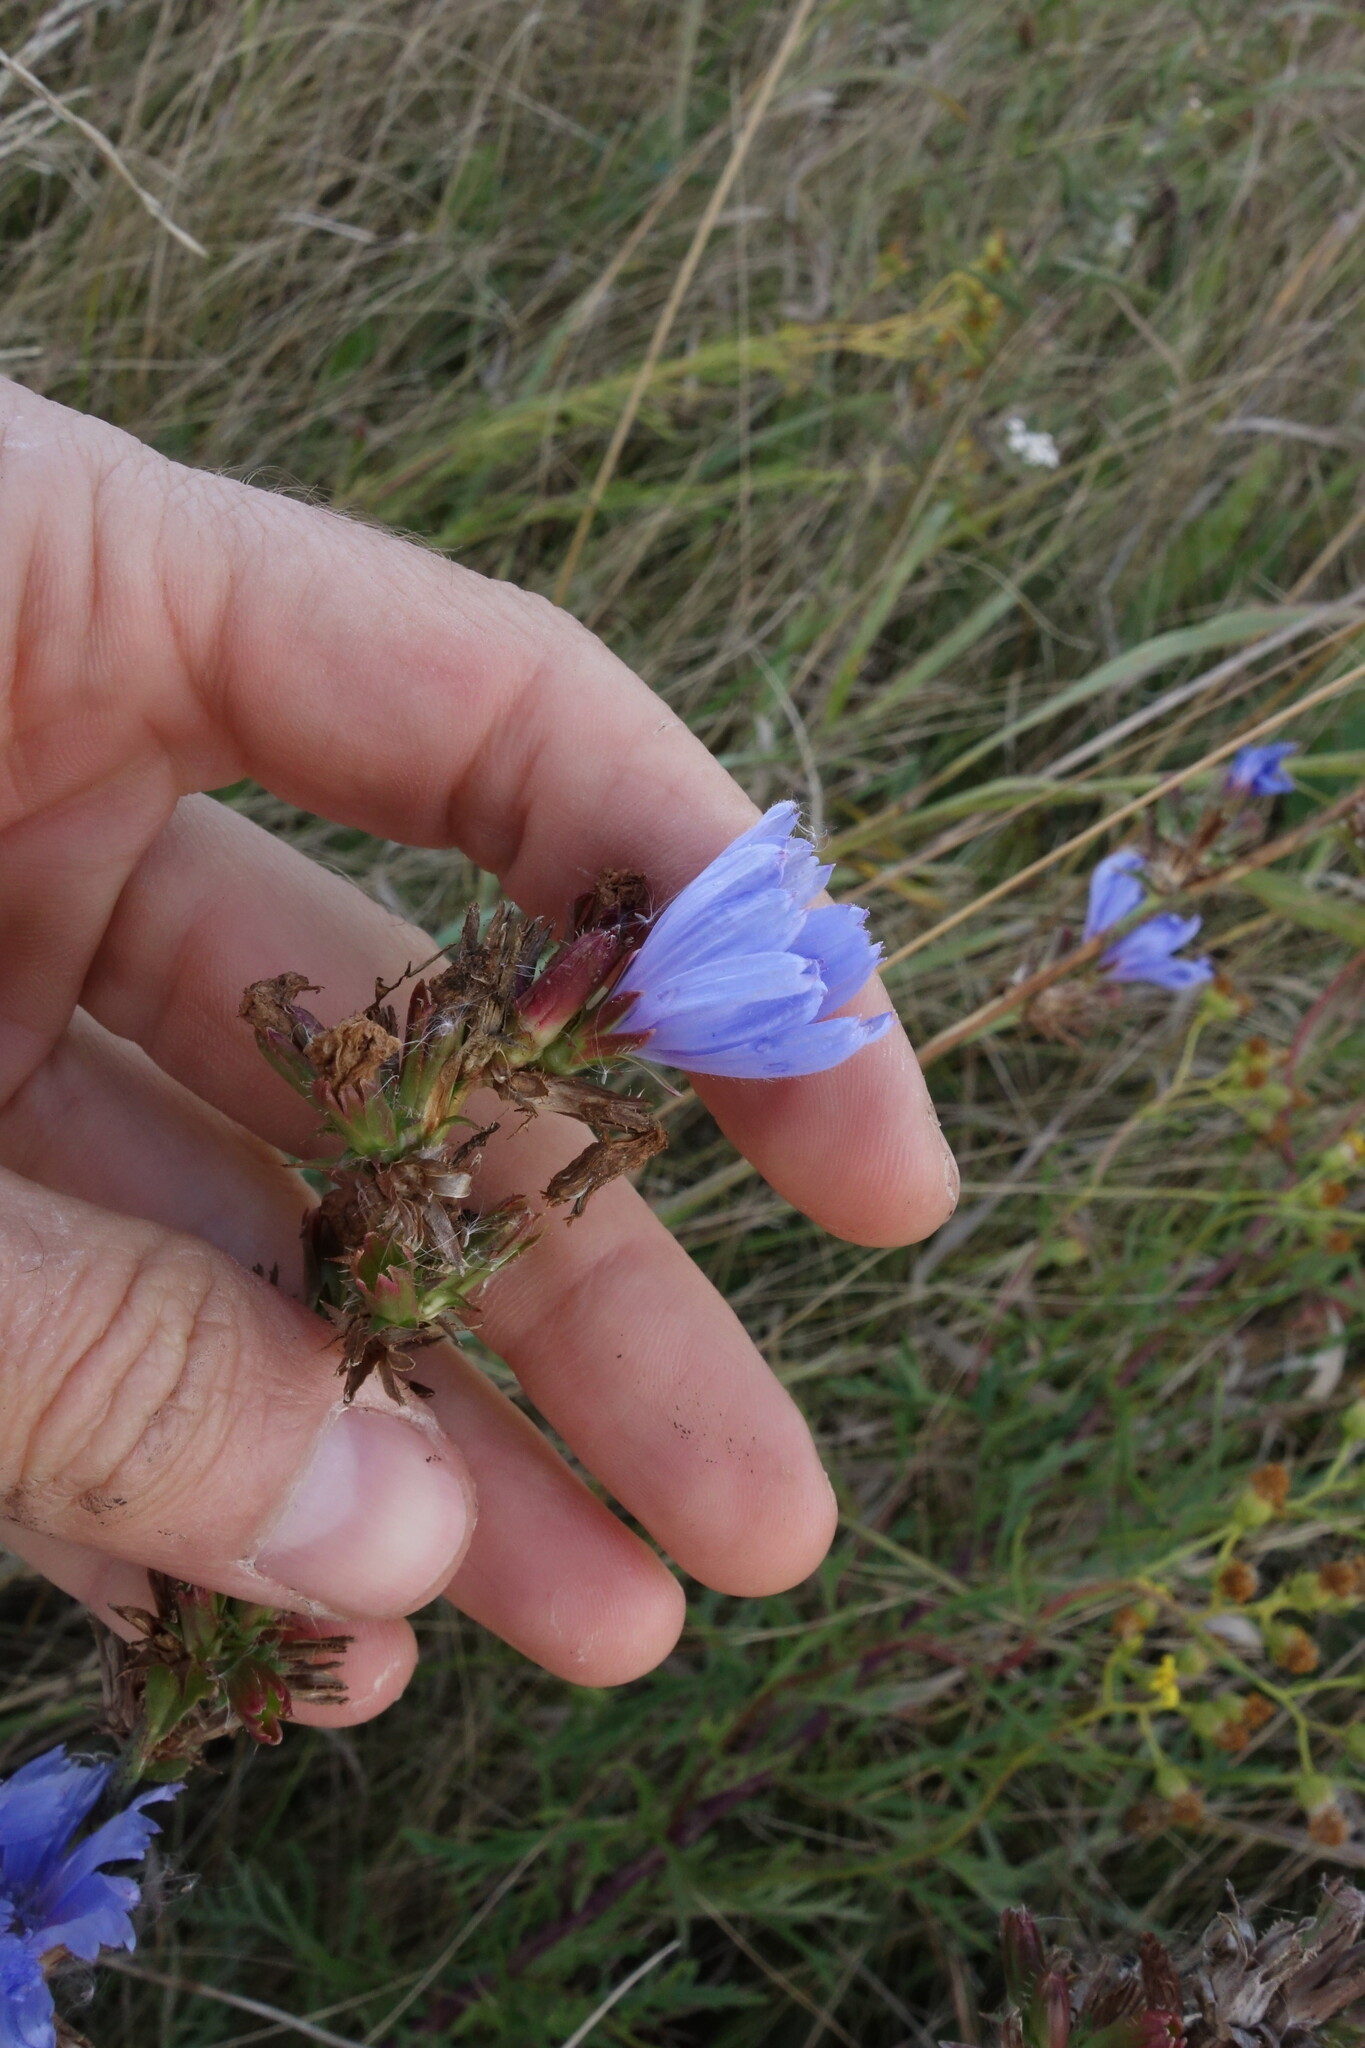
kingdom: Plantae
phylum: Tracheophyta
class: Magnoliopsida
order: Asterales
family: Asteraceae
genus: Cichorium
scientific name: Cichorium intybus
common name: Chicory
